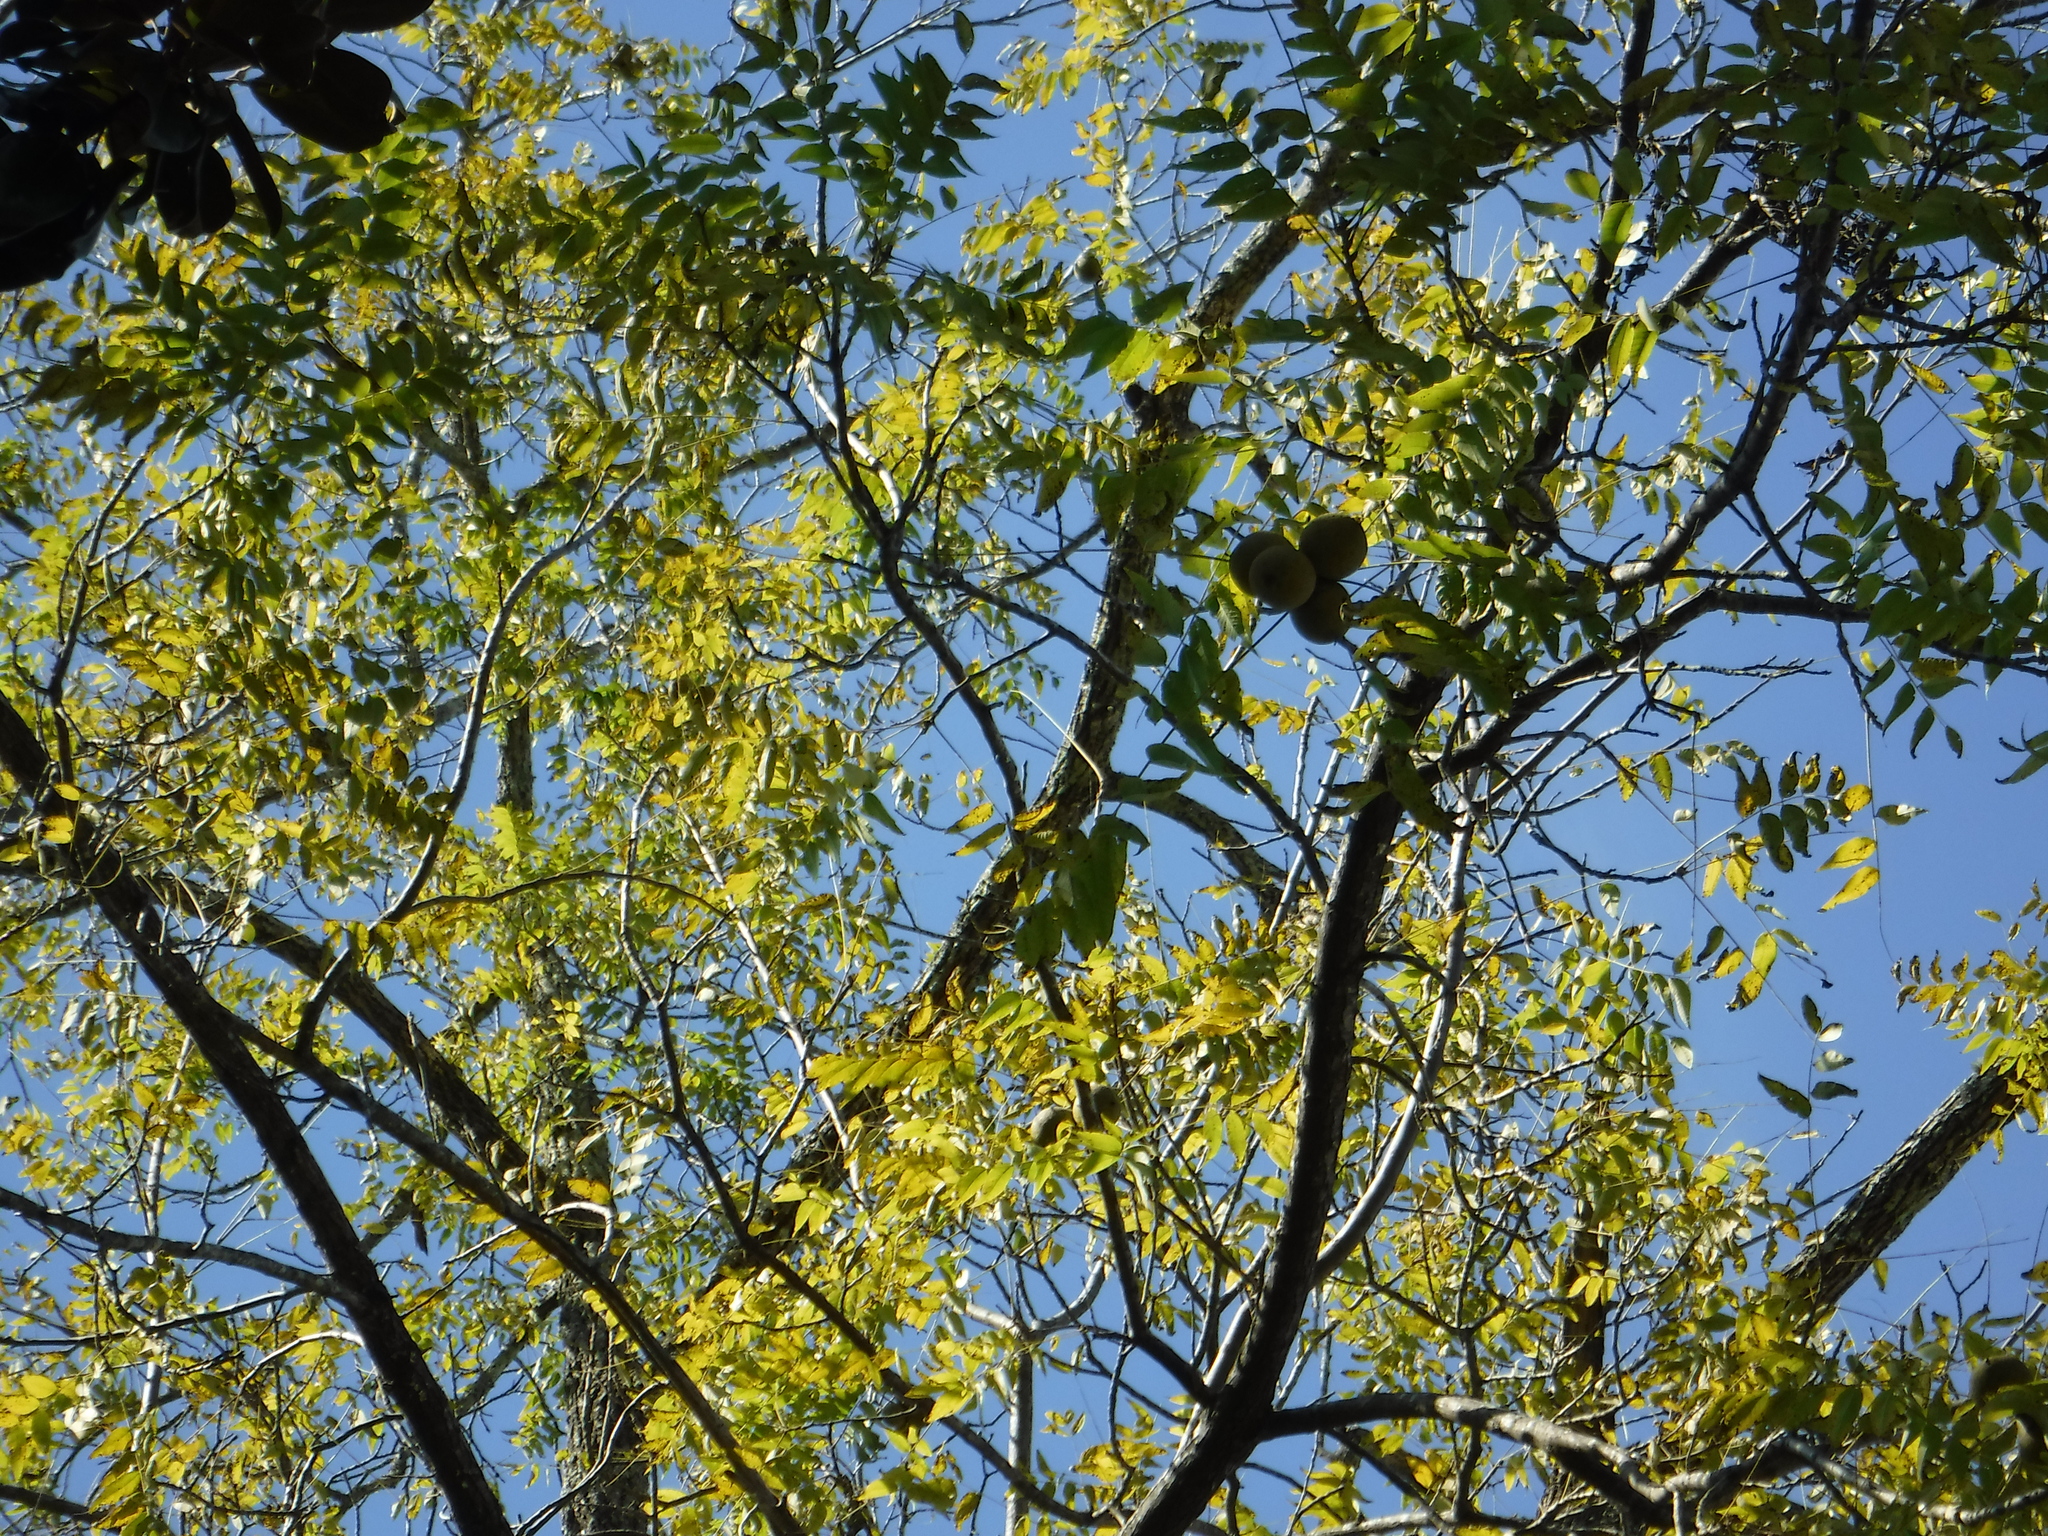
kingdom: Plantae
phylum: Tracheophyta
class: Magnoliopsida
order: Fagales
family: Juglandaceae
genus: Juglans
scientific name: Juglans nigra
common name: Black walnut
